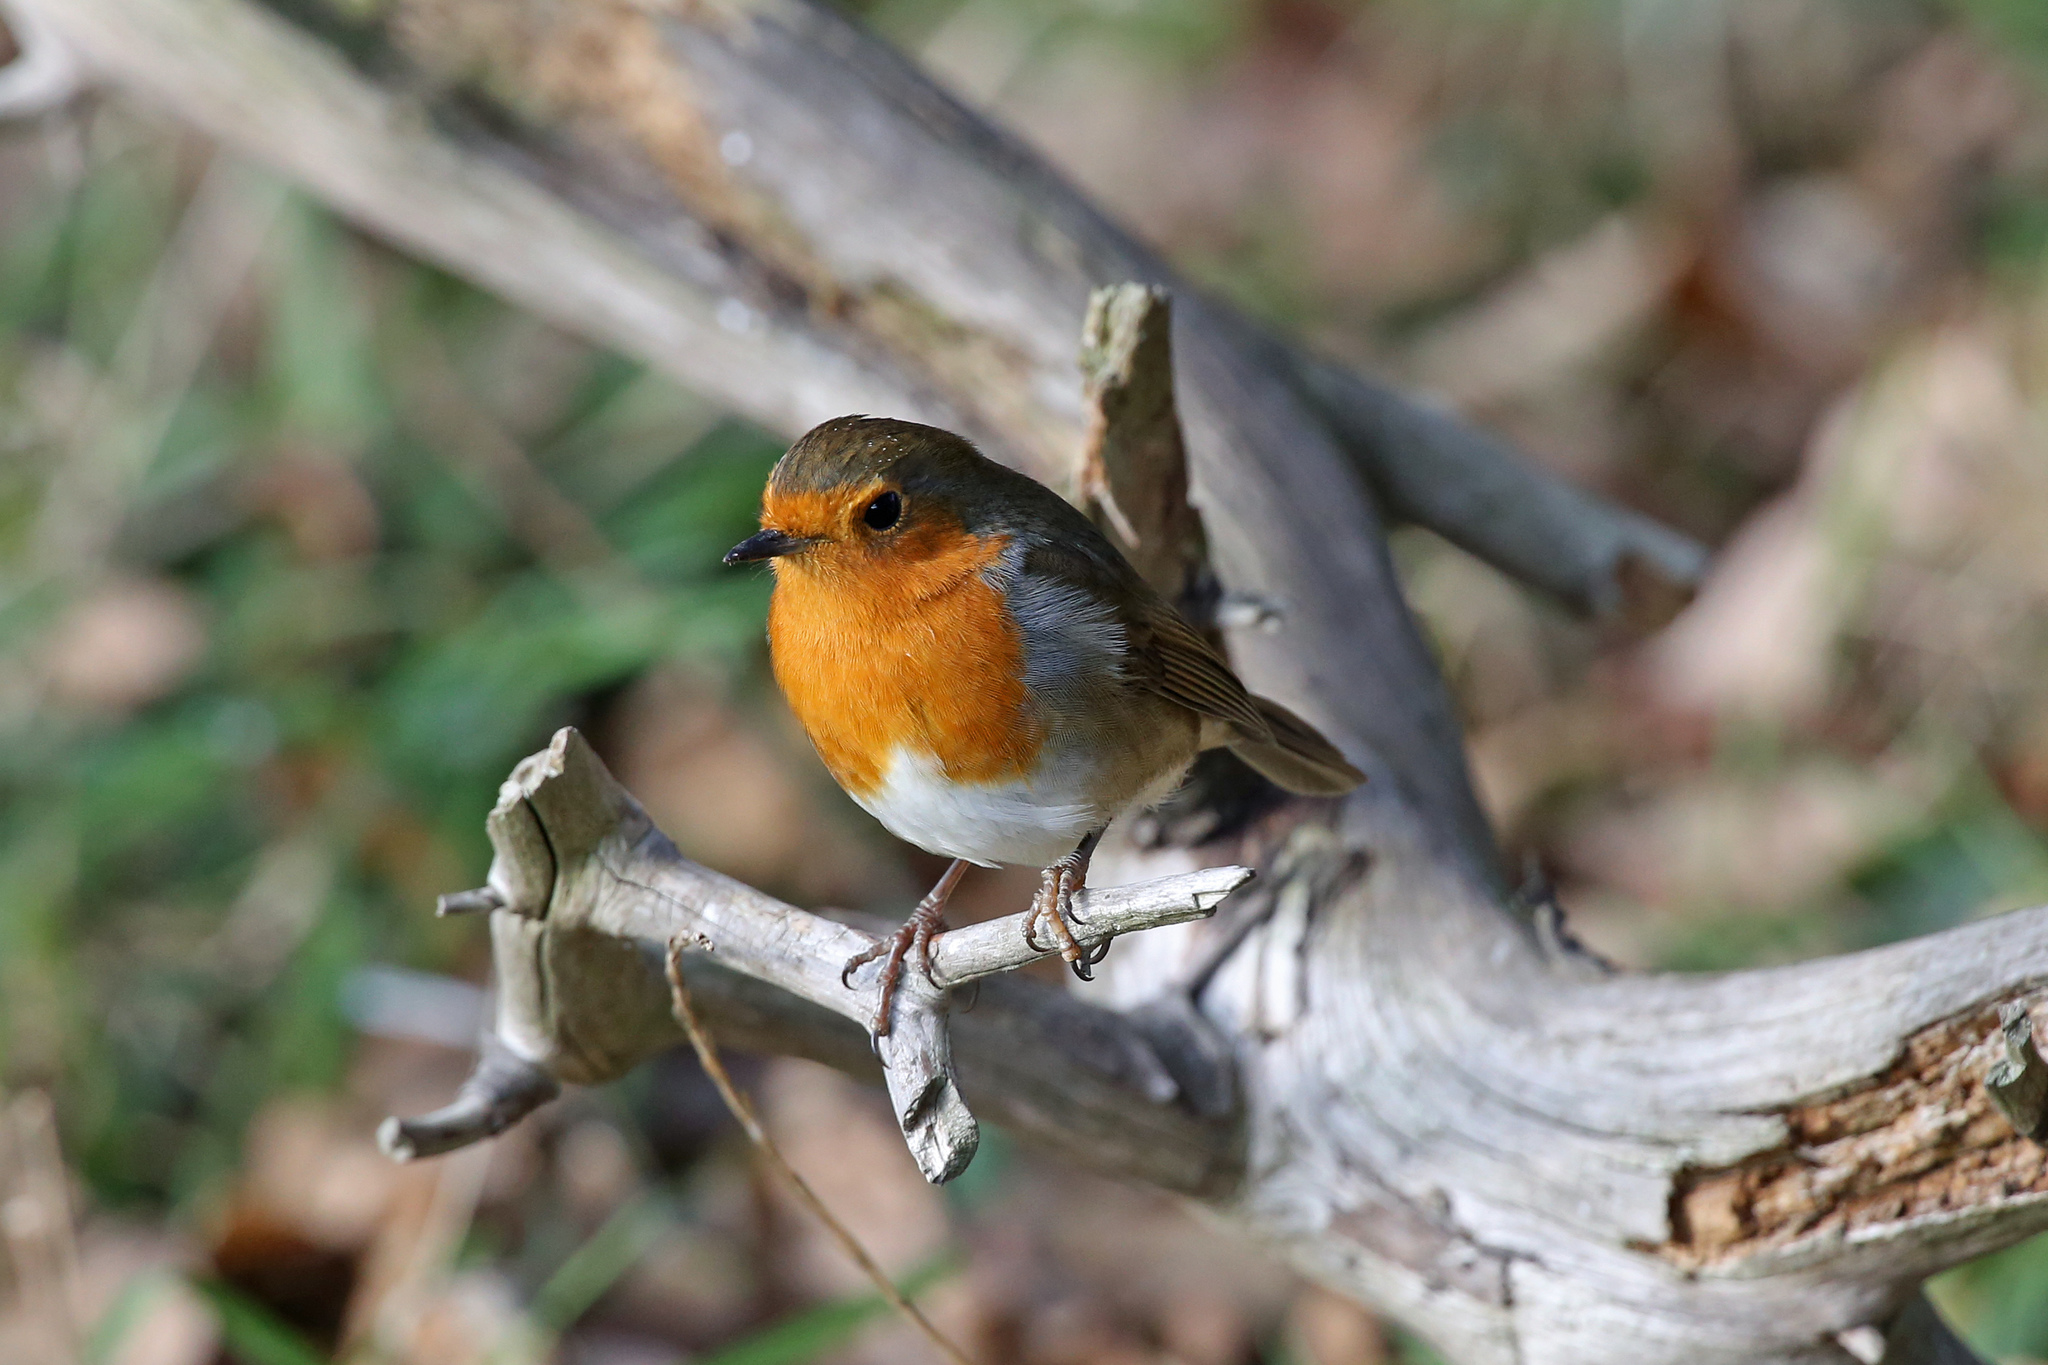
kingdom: Animalia
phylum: Chordata
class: Aves
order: Passeriformes
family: Muscicapidae
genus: Erithacus
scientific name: Erithacus rubecula
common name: European robin
